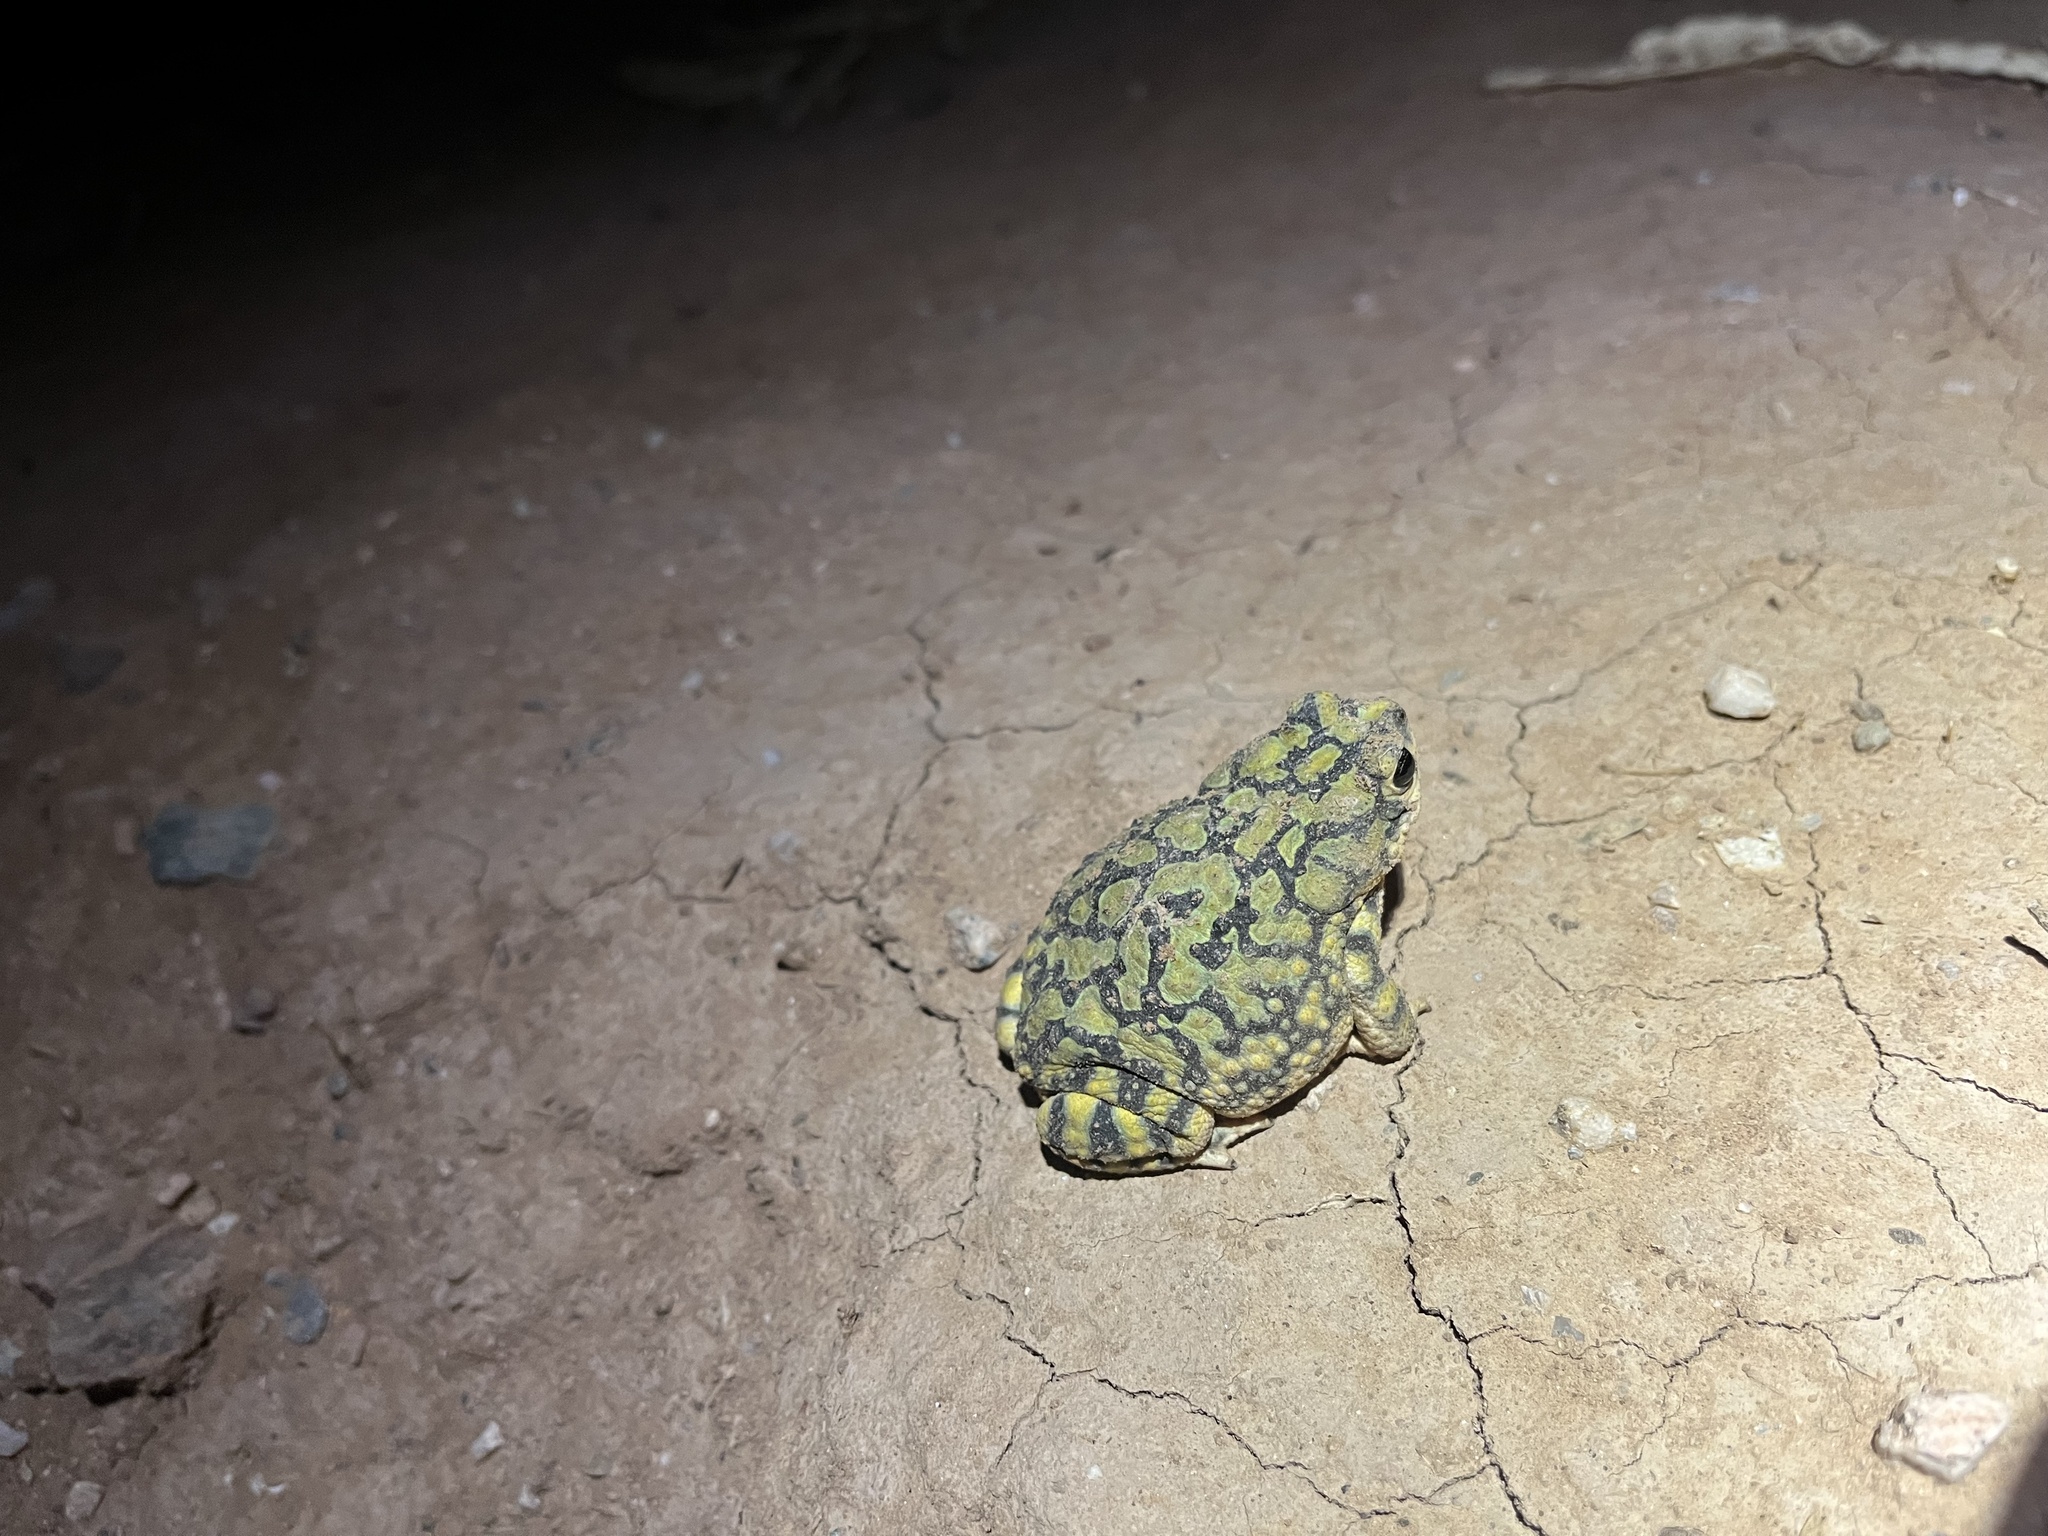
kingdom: Animalia
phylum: Chordata
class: Amphibia
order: Anura
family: Bufonidae
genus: Anaxyrus
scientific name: Anaxyrus retiformis
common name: Sonoran green toad
